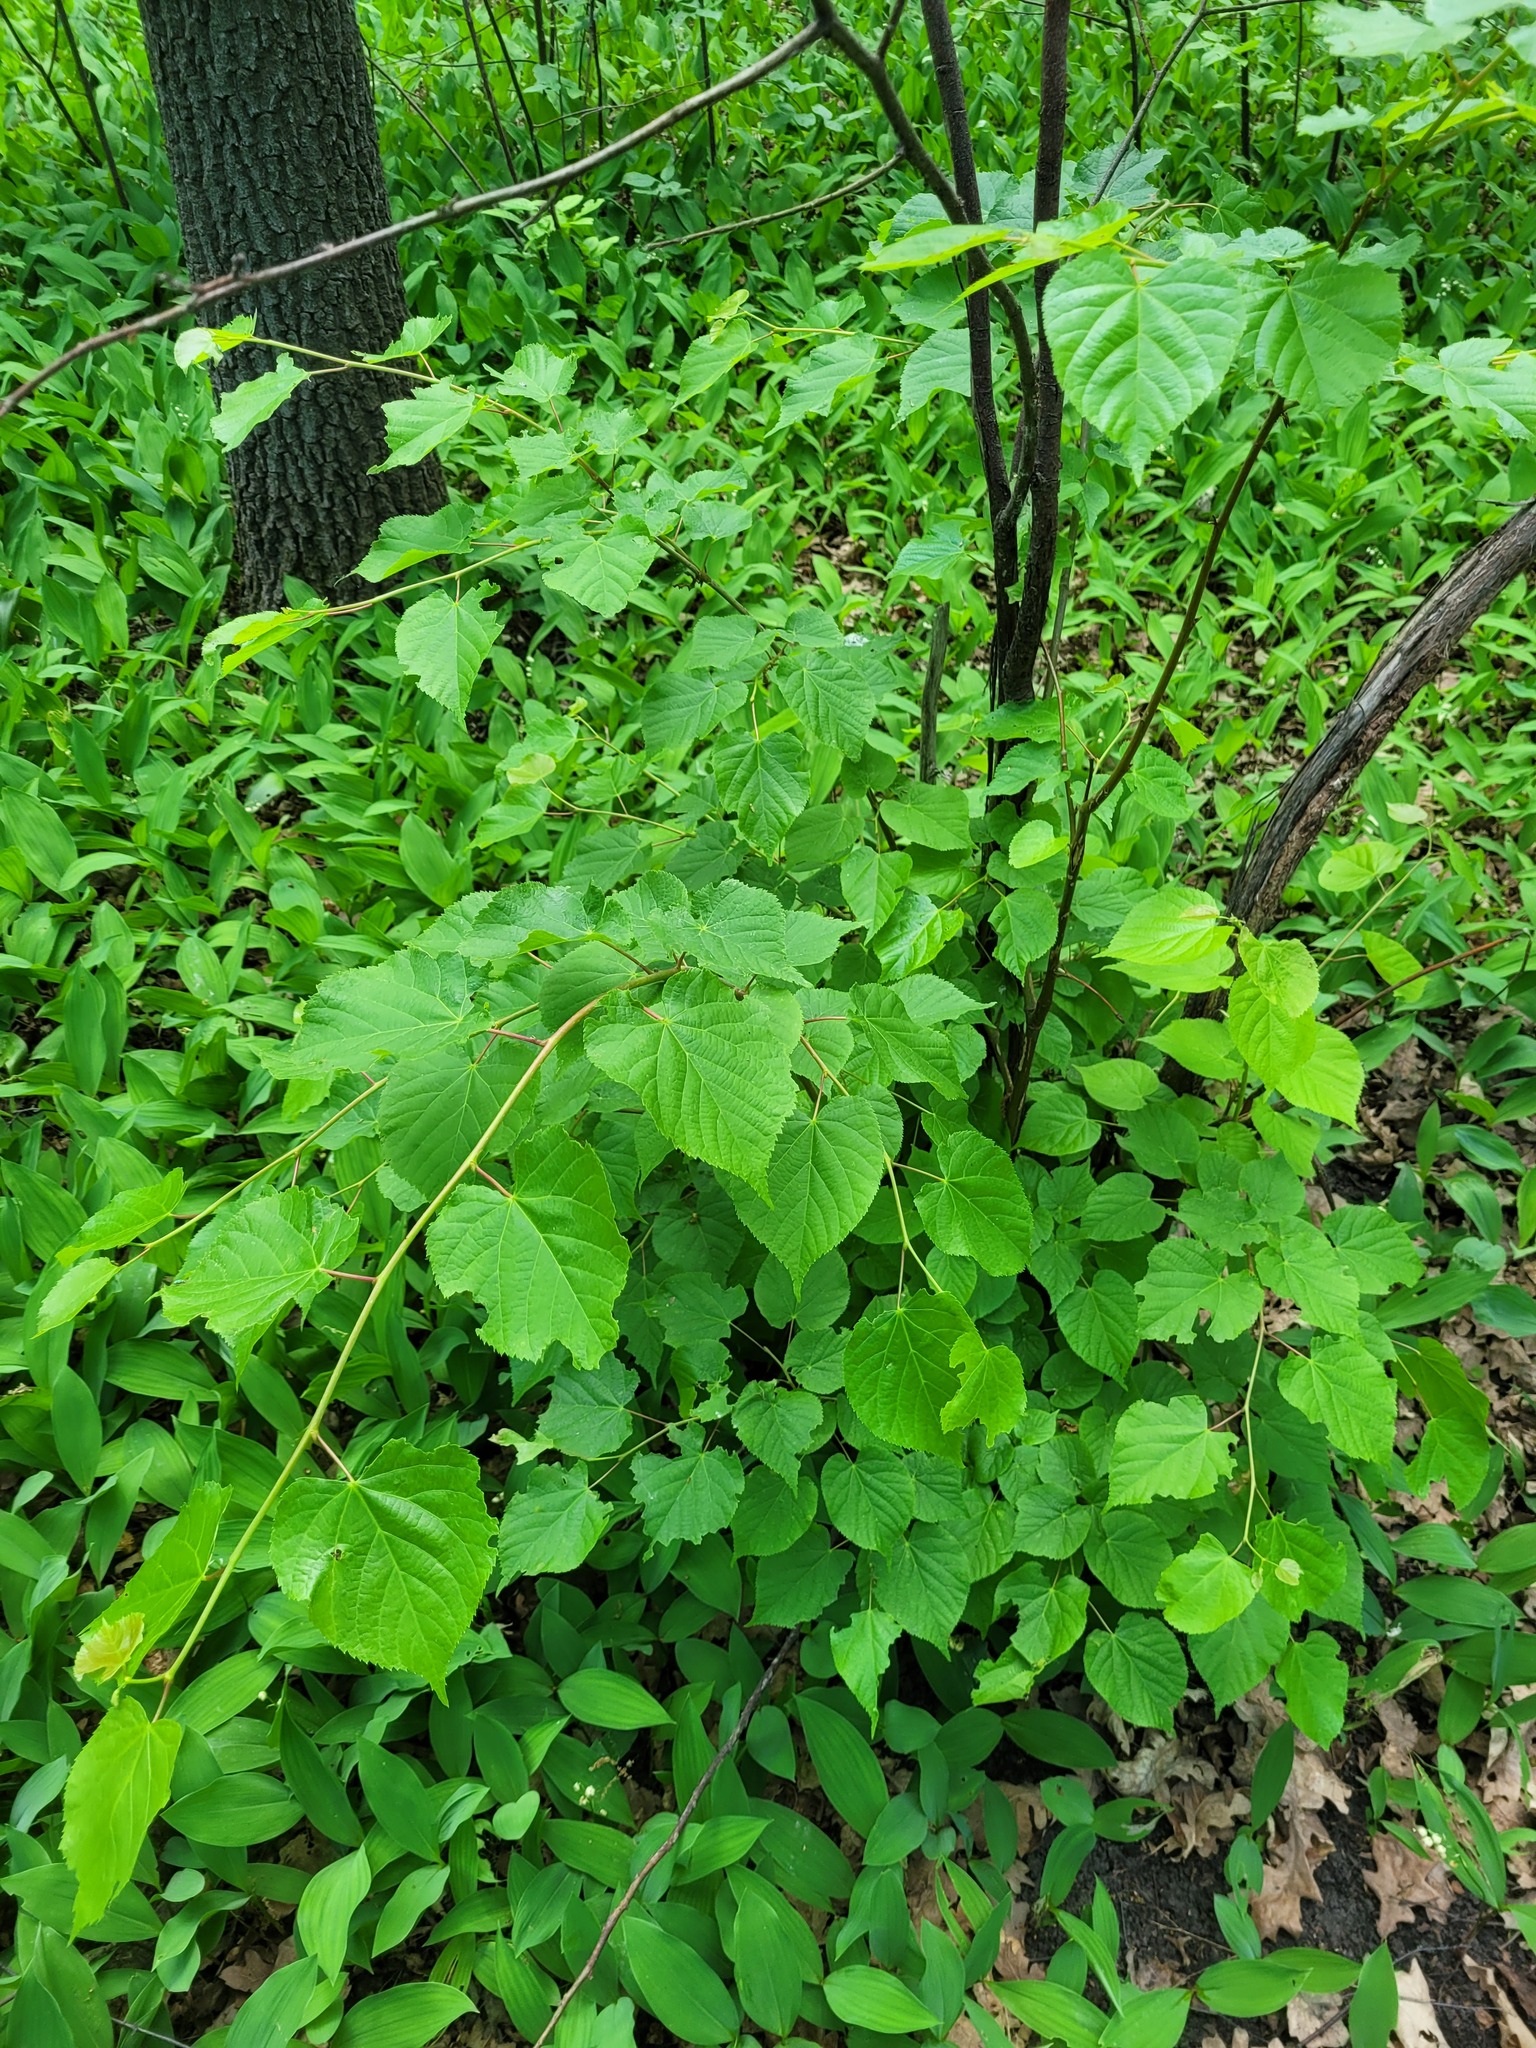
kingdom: Plantae
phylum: Tracheophyta
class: Magnoliopsida
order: Malvales
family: Malvaceae
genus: Tilia
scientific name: Tilia cordata
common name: Small-leaved lime
